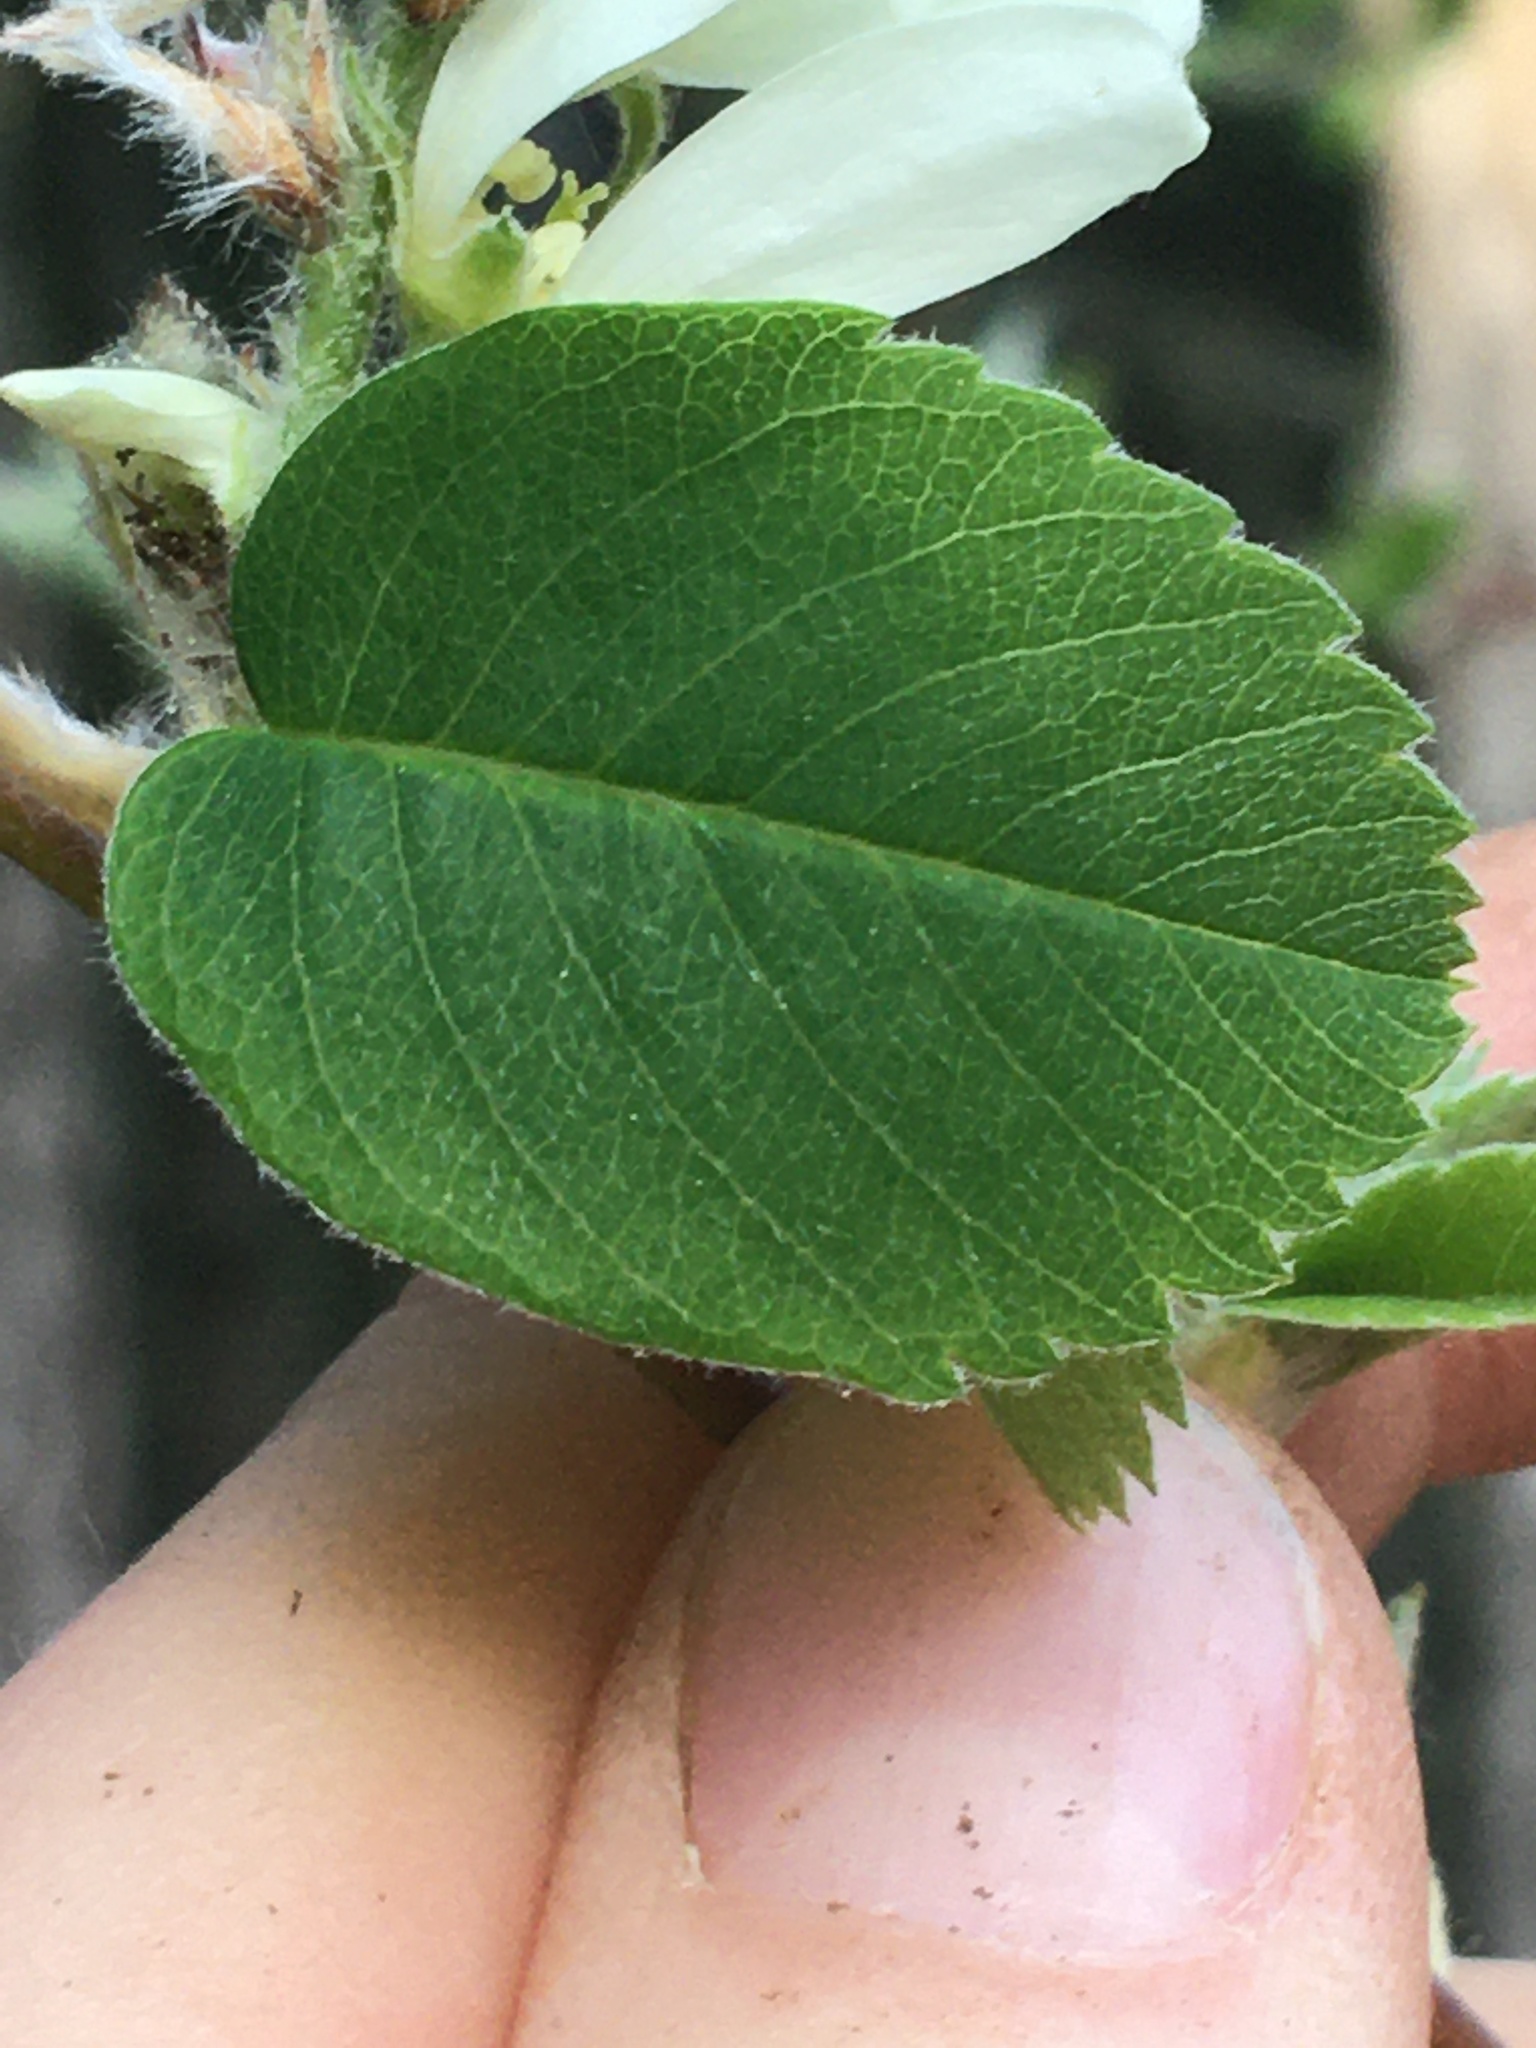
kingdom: Plantae
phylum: Tracheophyta
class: Magnoliopsida
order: Rosales
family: Rosaceae
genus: Amelanchier
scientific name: Amelanchier alnifolia
